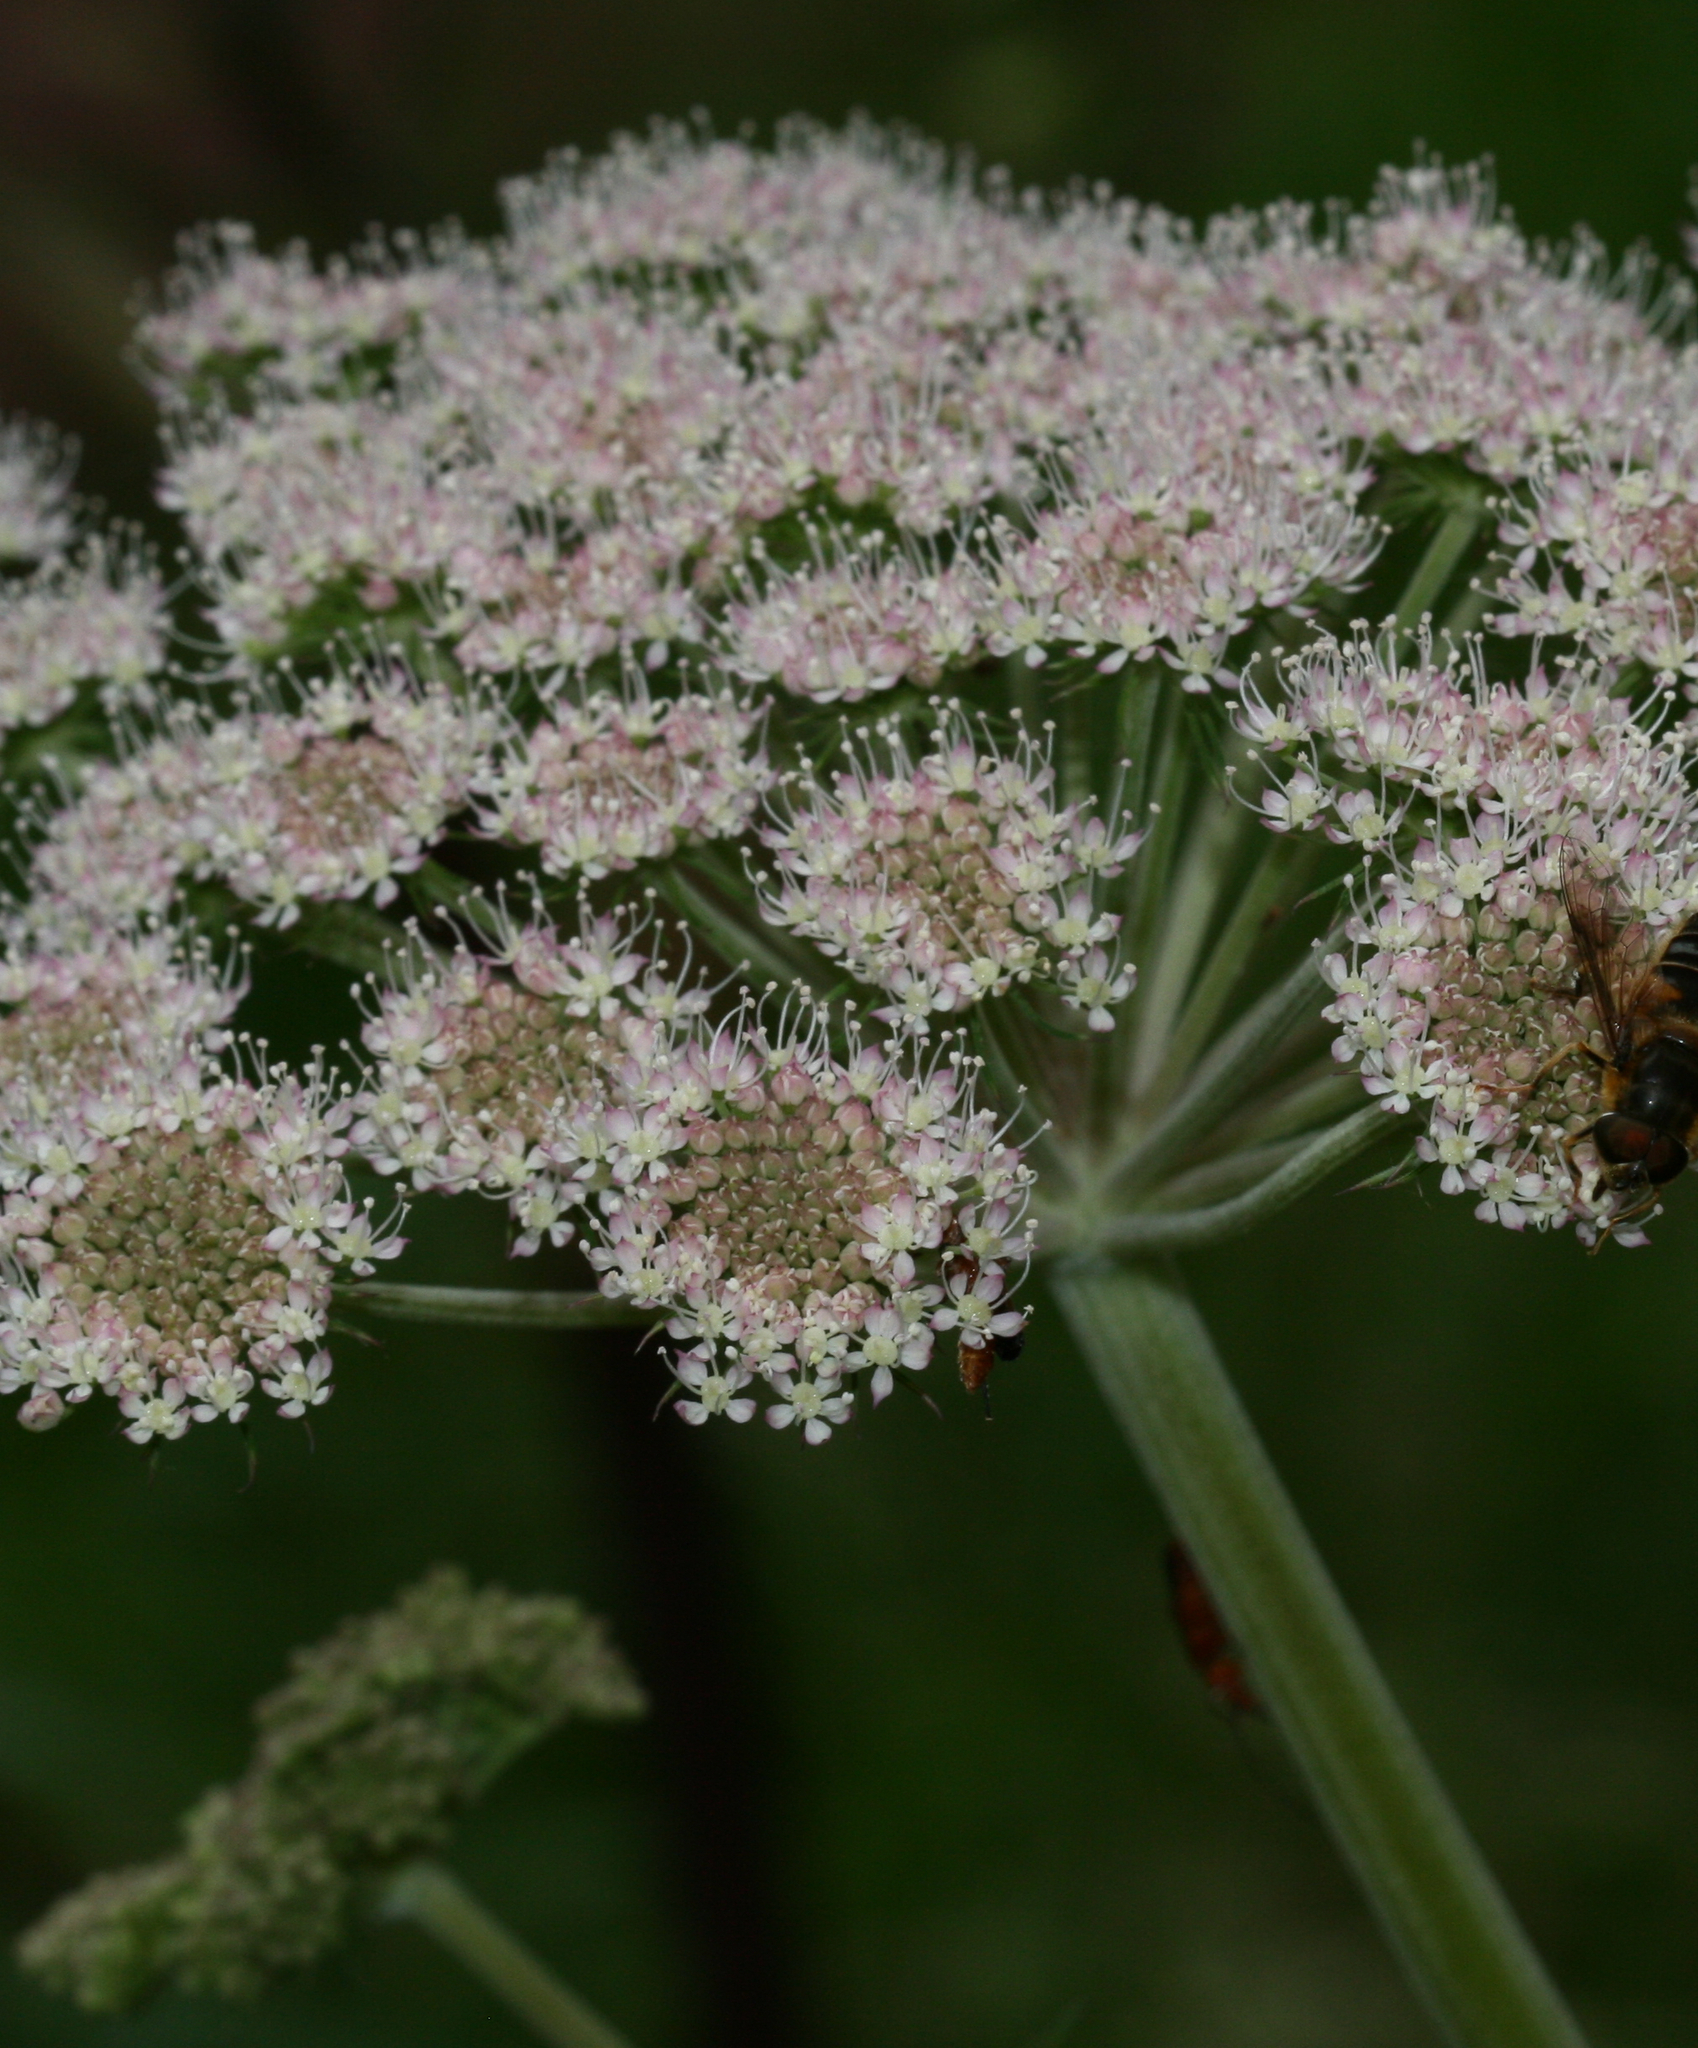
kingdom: Plantae
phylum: Tracheophyta
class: Magnoliopsida
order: Apiales
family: Apiaceae
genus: Angelica
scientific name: Angelica sylvestris
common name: Wild angelica
